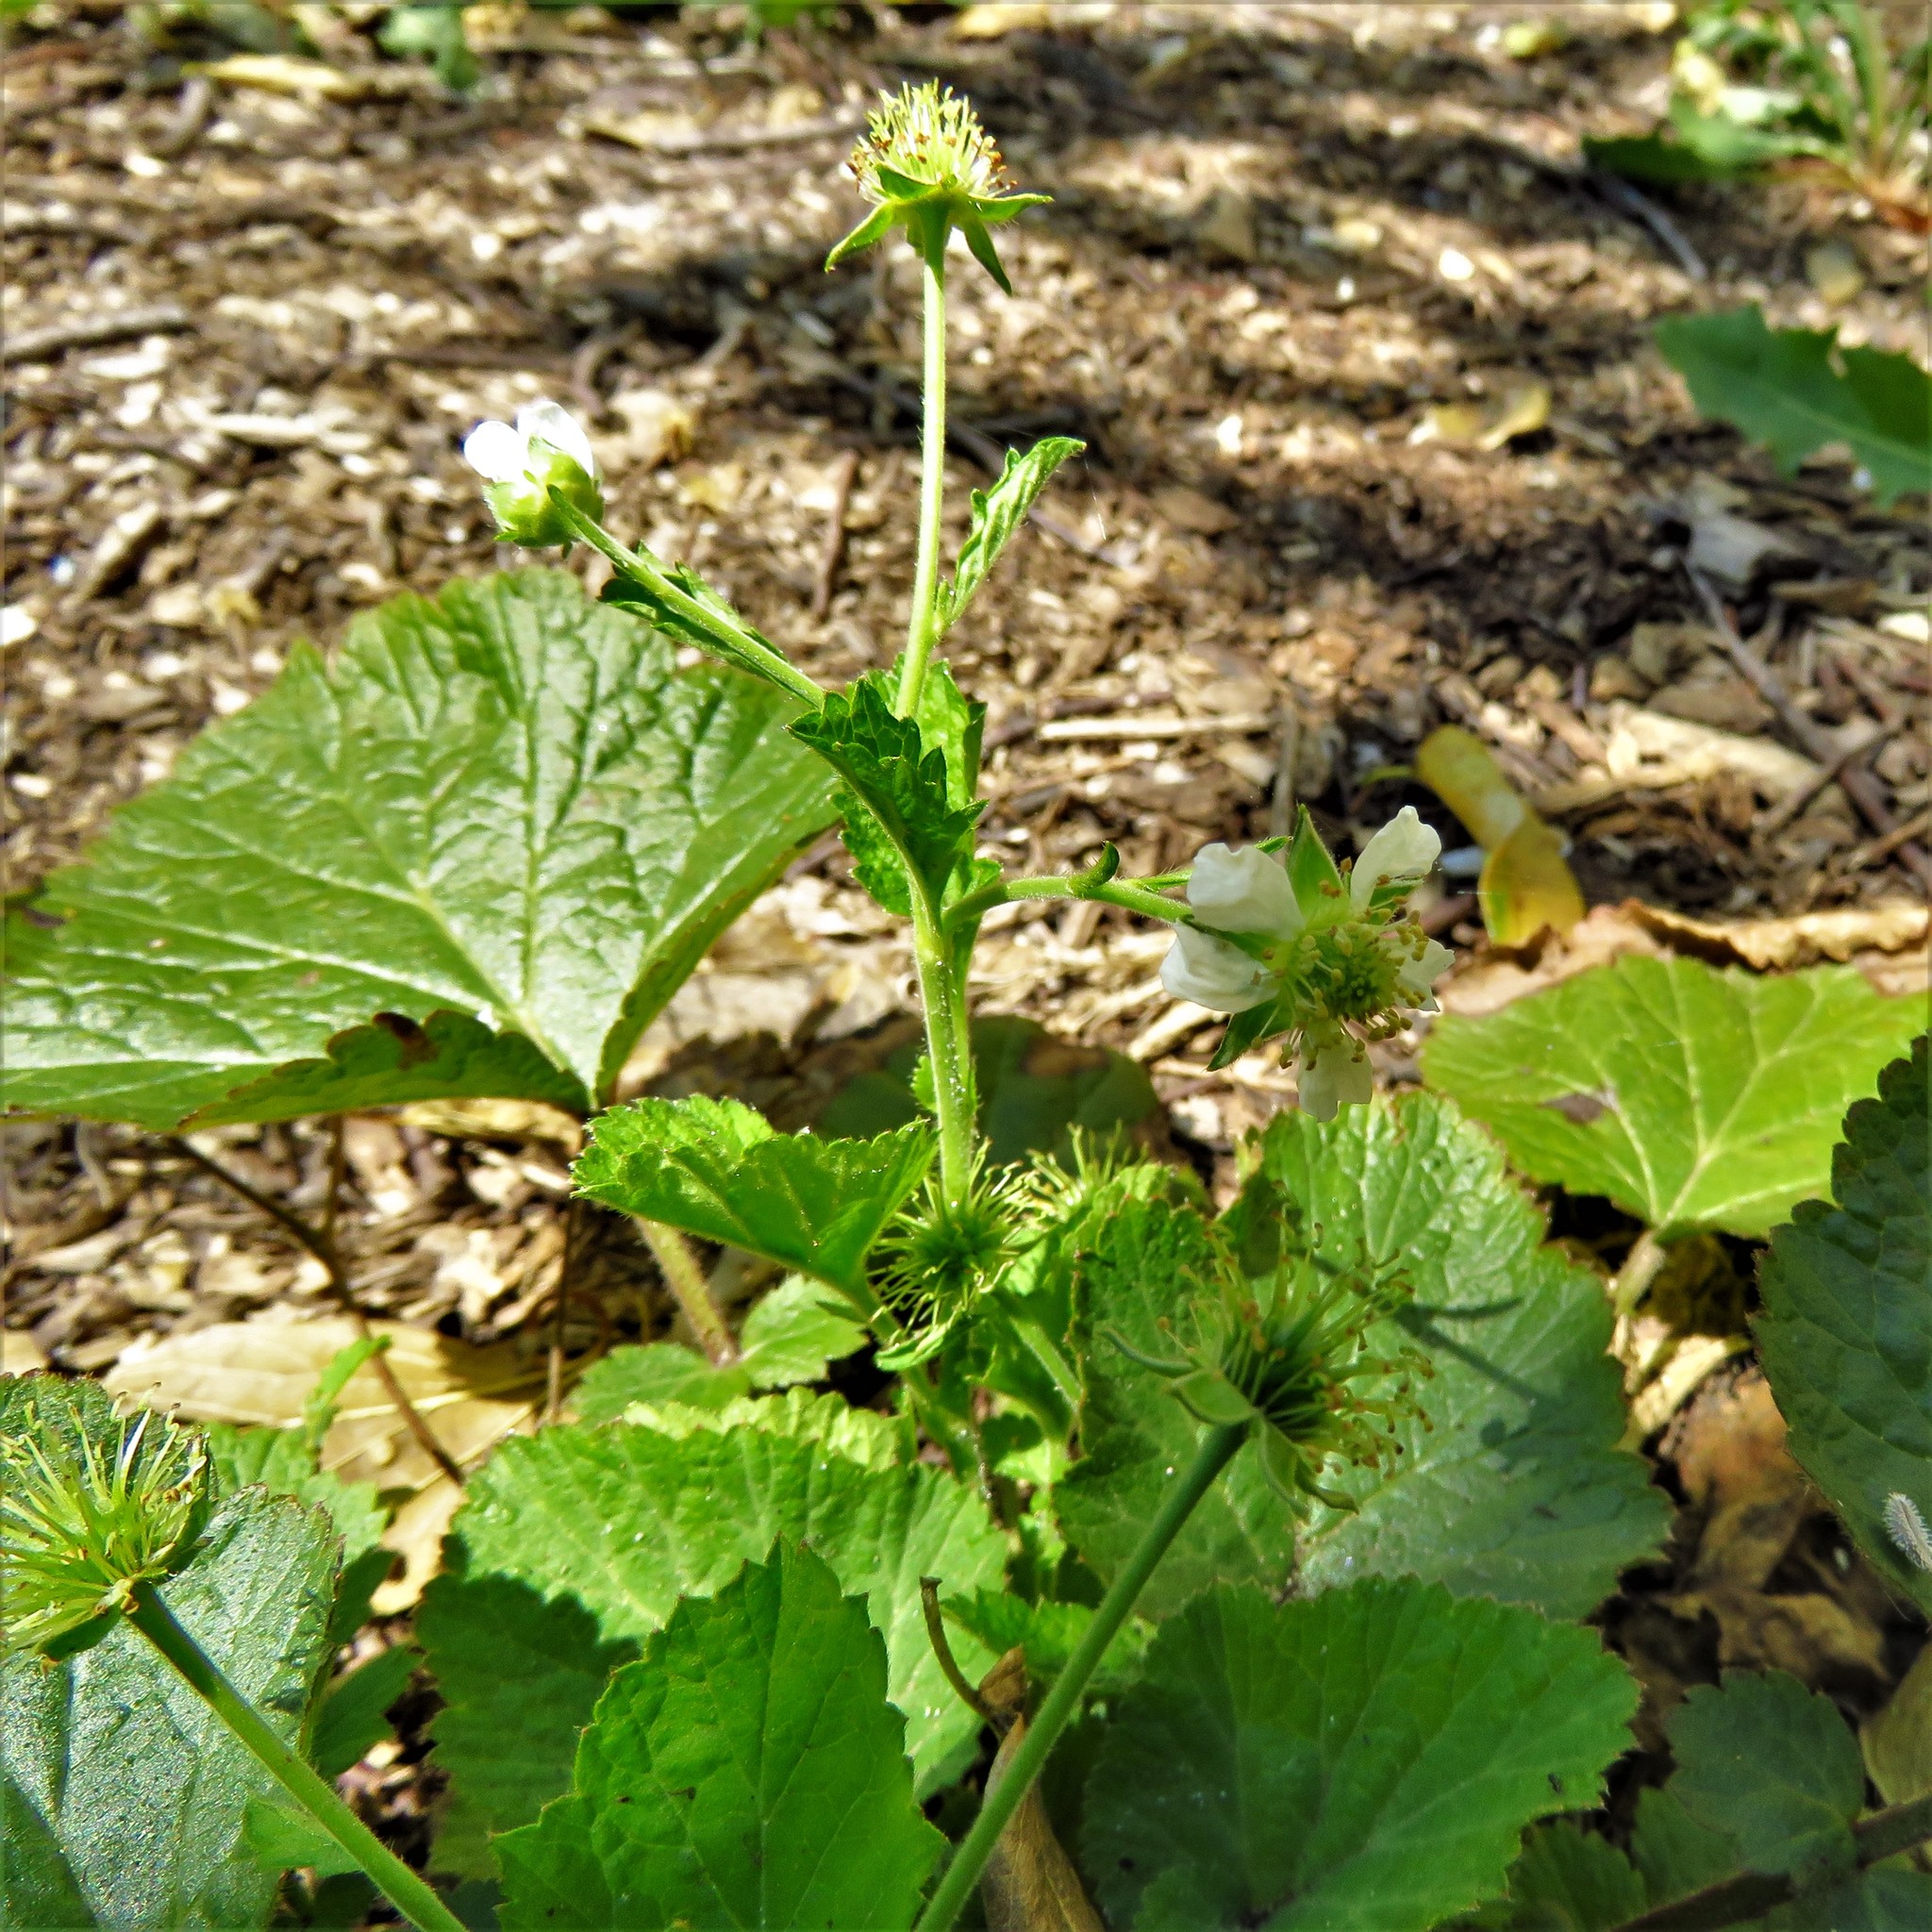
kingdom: Plantae
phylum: Tracheophyta
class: Magnoliopsida
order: Rosales
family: Rosaceae
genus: Geum
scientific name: Geum canadense
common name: White avens
